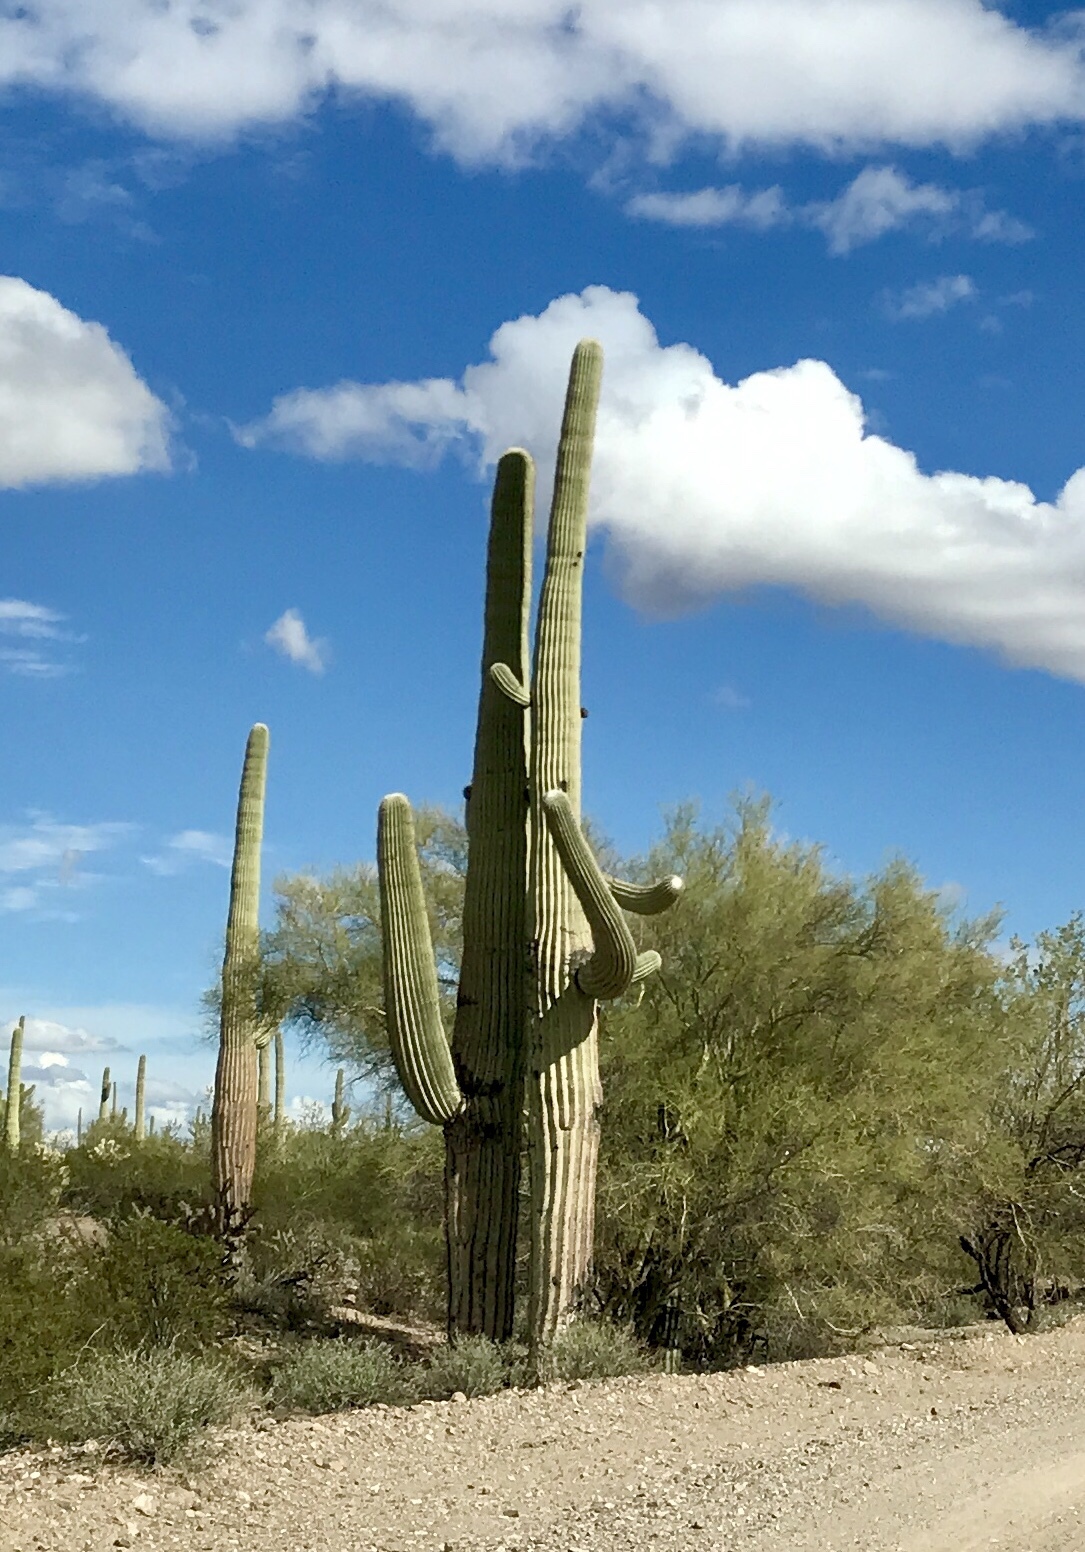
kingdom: Plantae
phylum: Tracheophyta
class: Magnoliopsida
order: Caryophyllales
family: Cactaceae
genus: Carnegiea
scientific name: Carnegiea gigantea
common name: Saguaro
